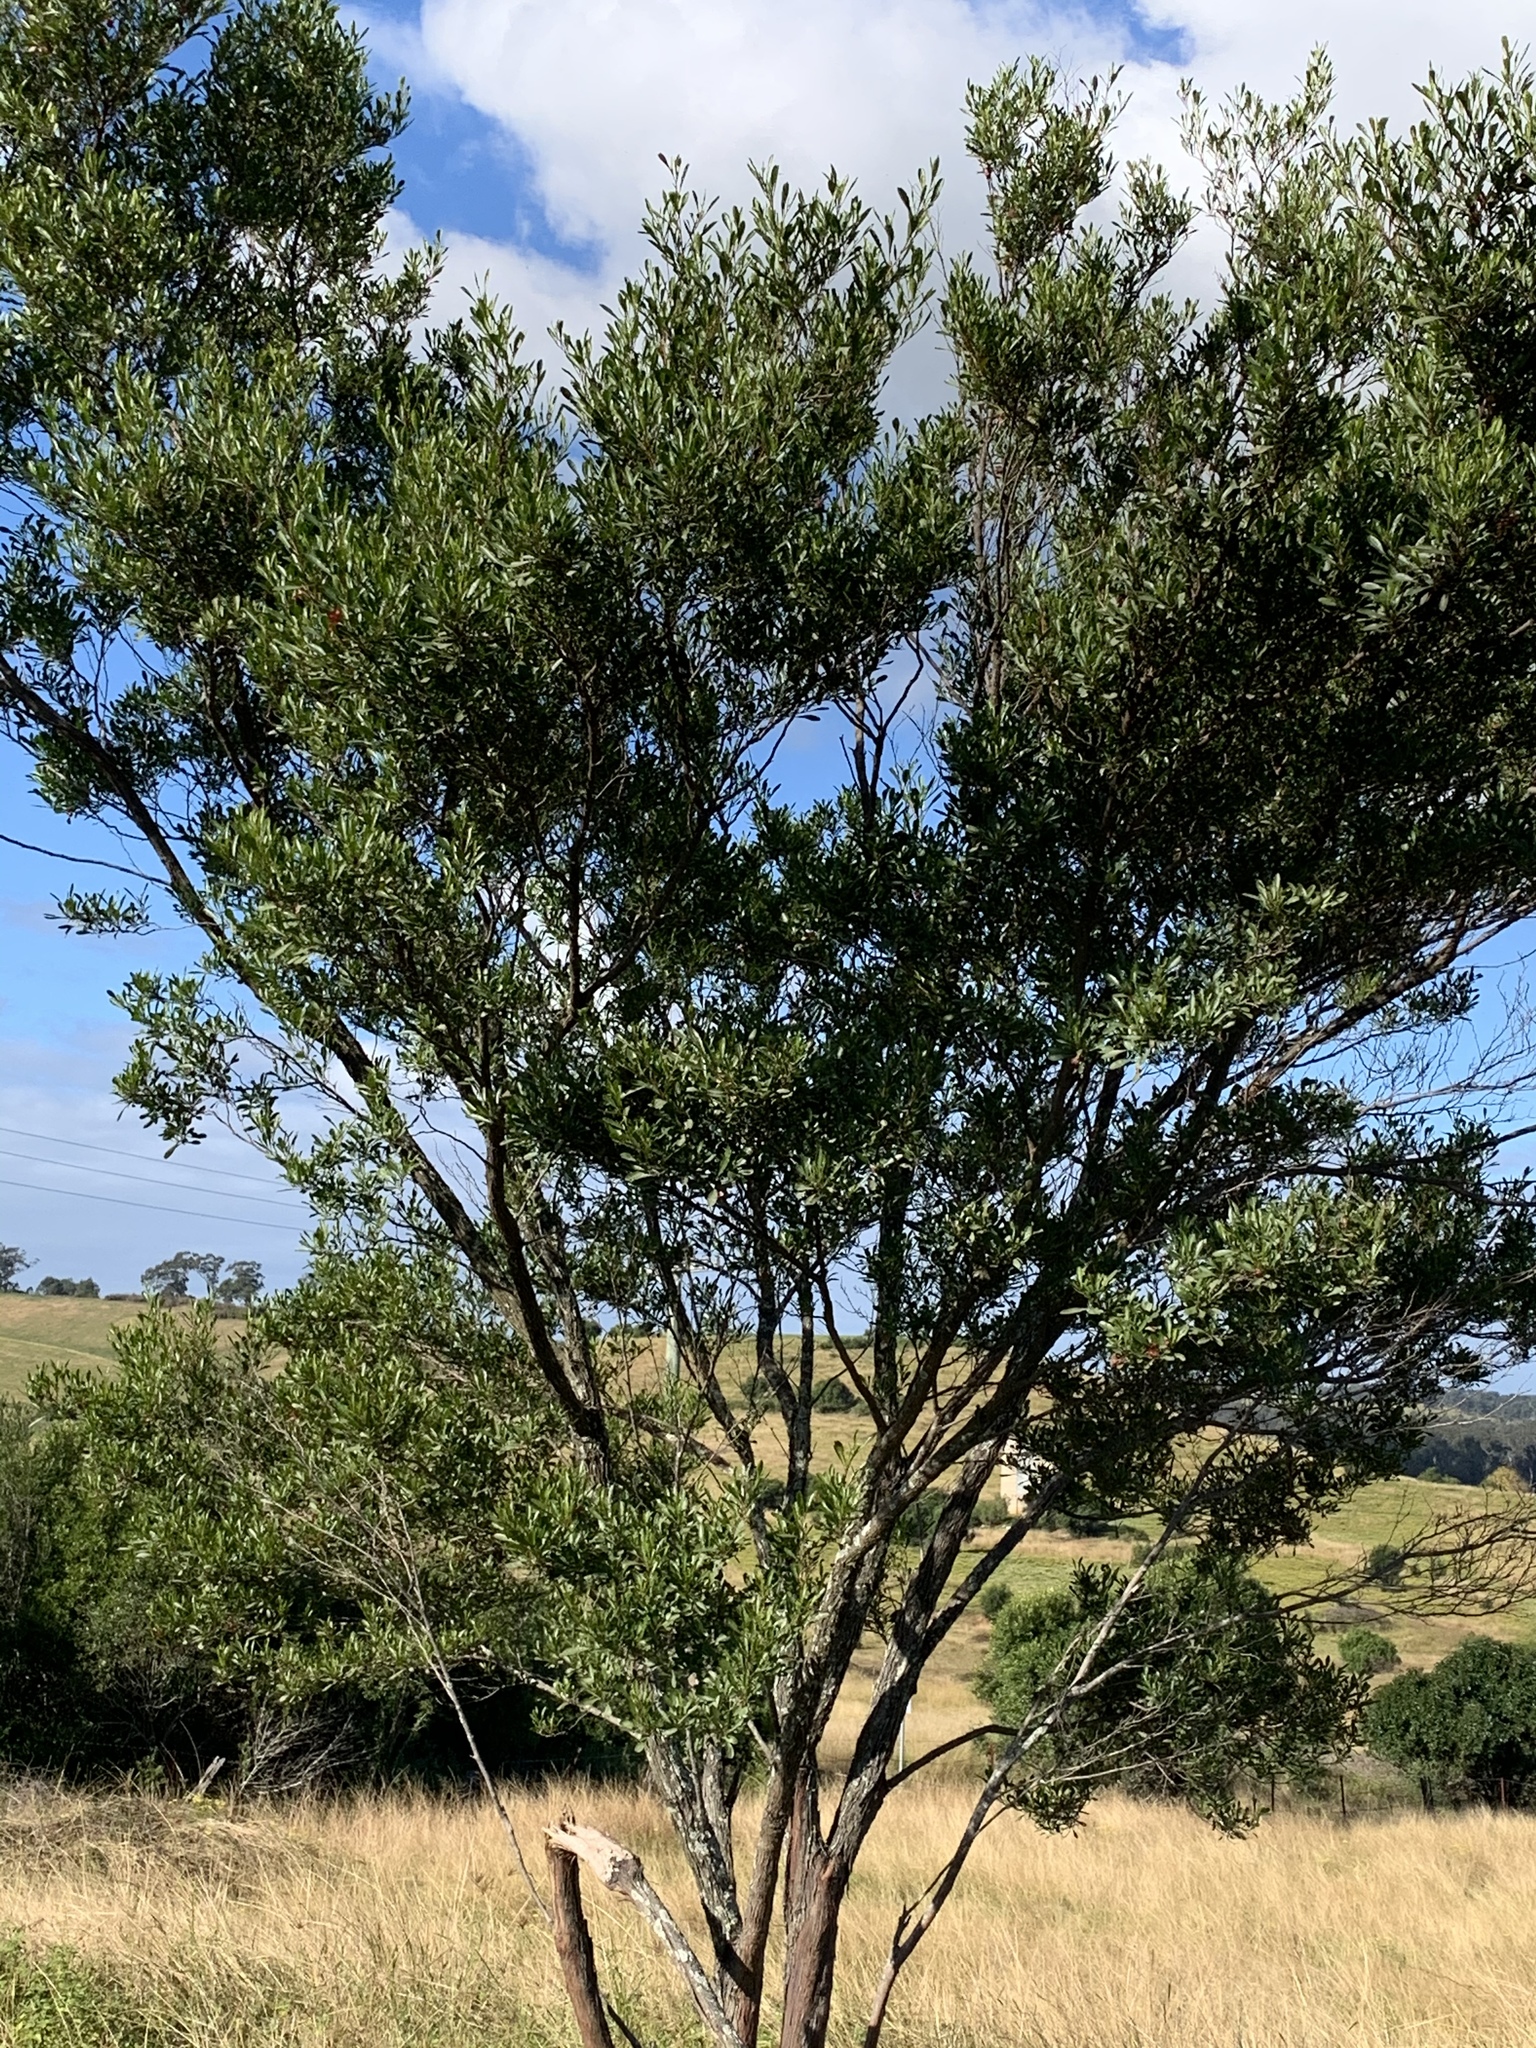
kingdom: Plantae
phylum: Tracheophyta
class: Magnoliopsida
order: Sapindales
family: Sapindaceae
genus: Dodonaea
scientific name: Dodonaea viscosa
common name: Hopbush
